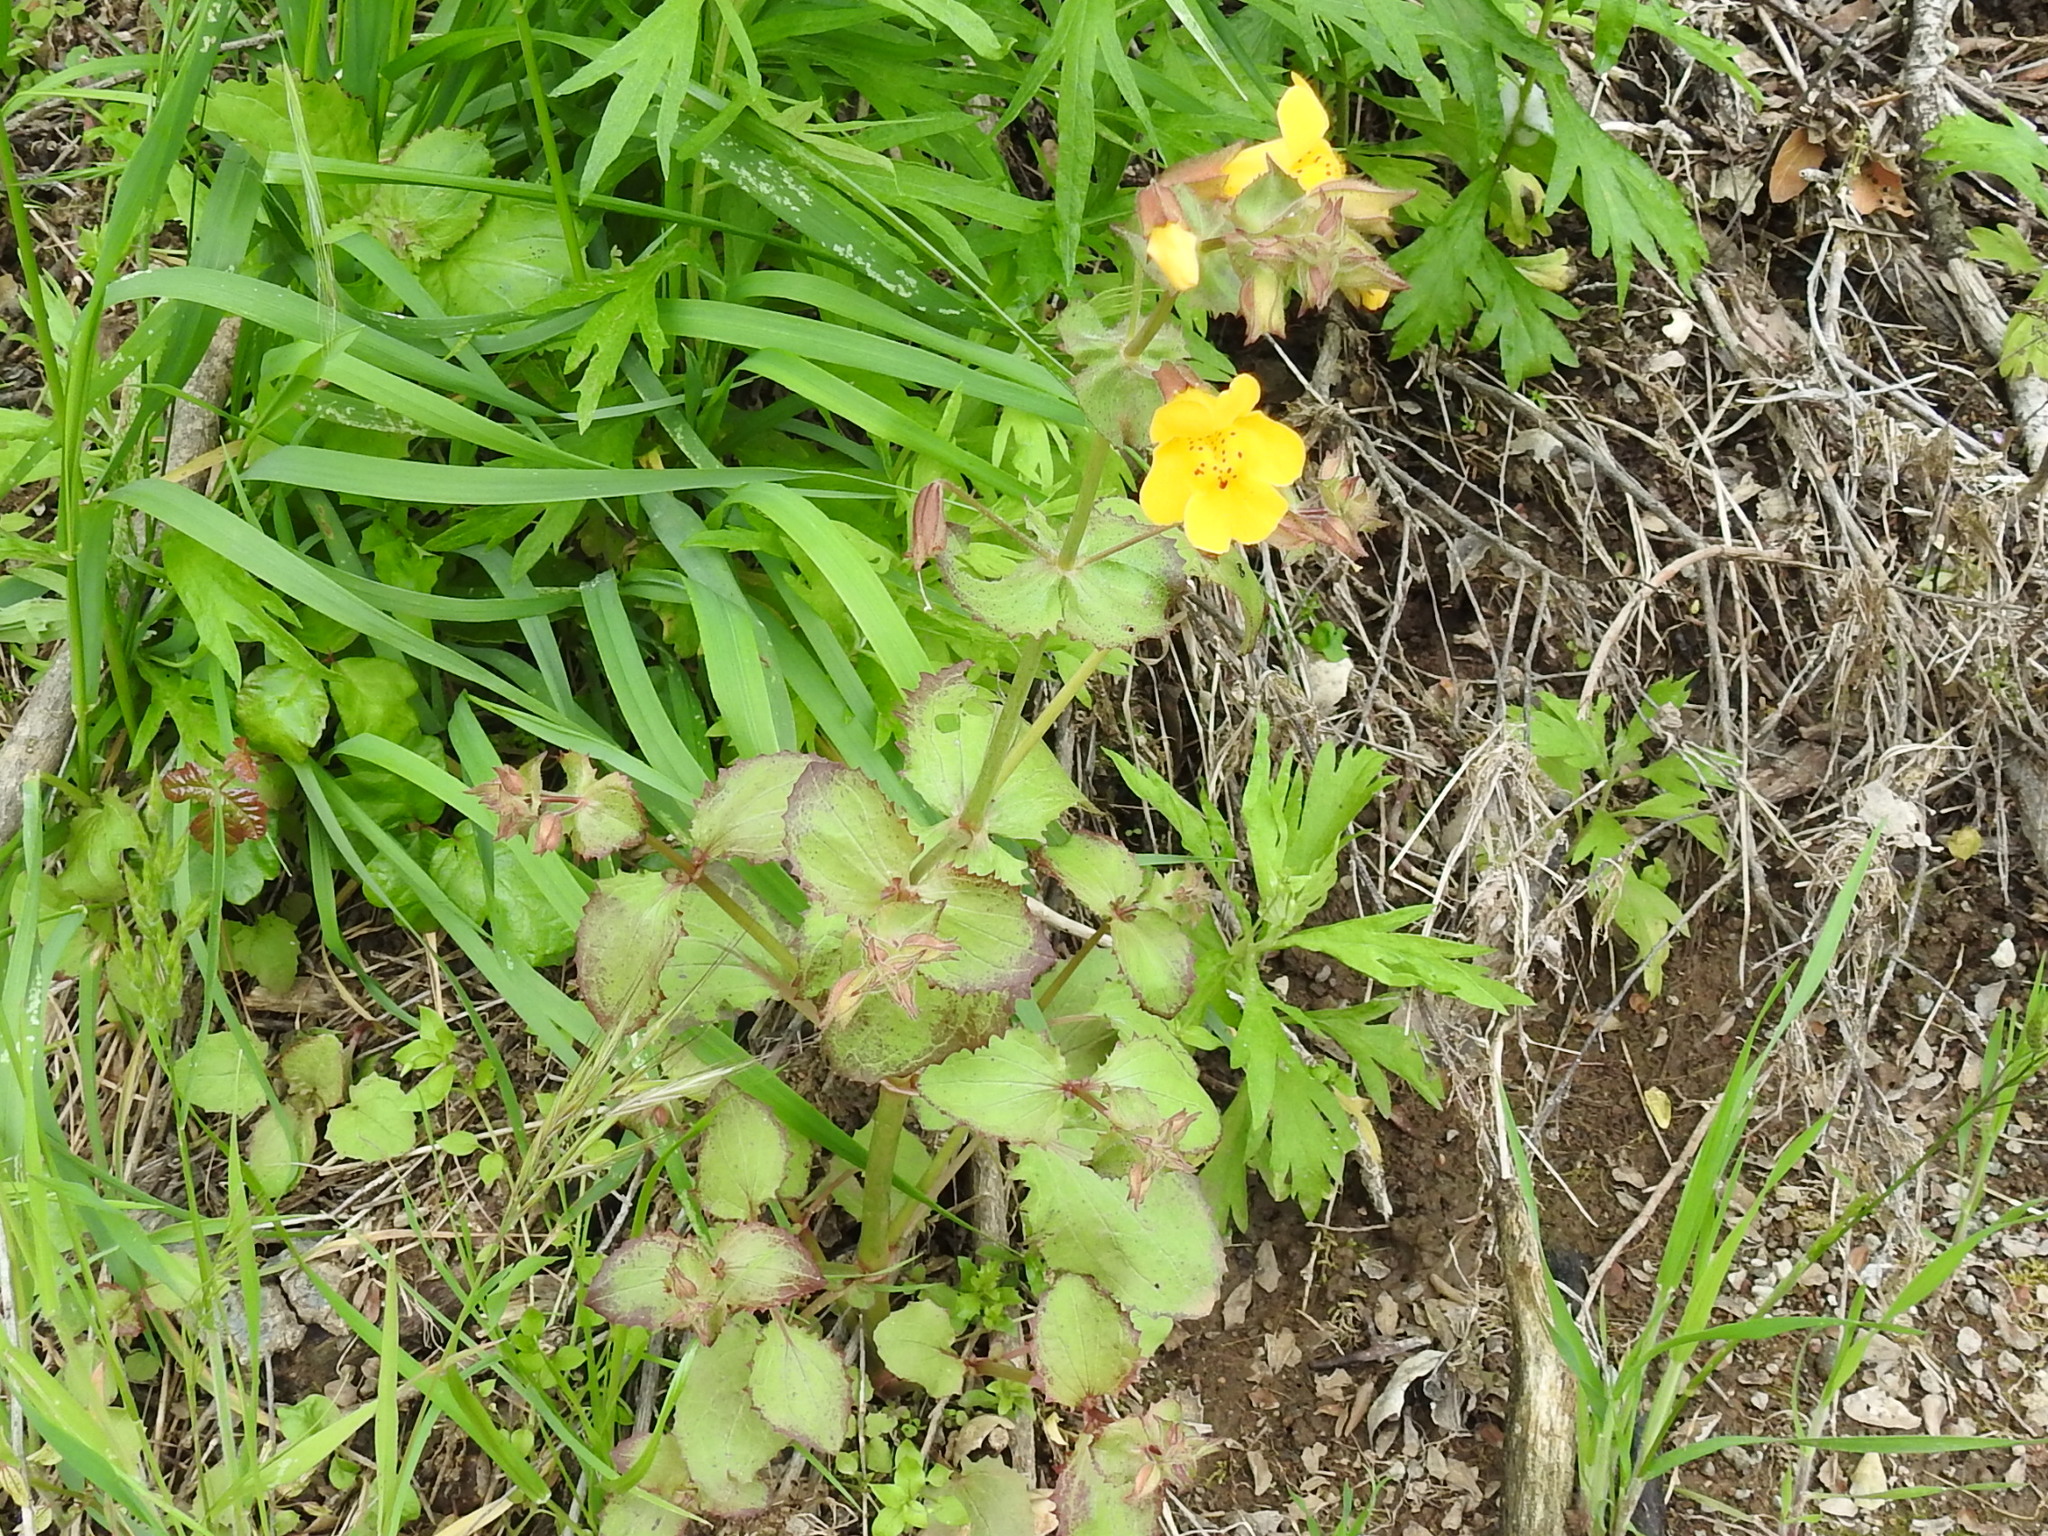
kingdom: Plantae
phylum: Tracheophyta
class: Magnoliopsida
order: Lamiales
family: Phrymaceae
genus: Erythranthe
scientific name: Erythranthe guttata
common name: Monkeyflower
